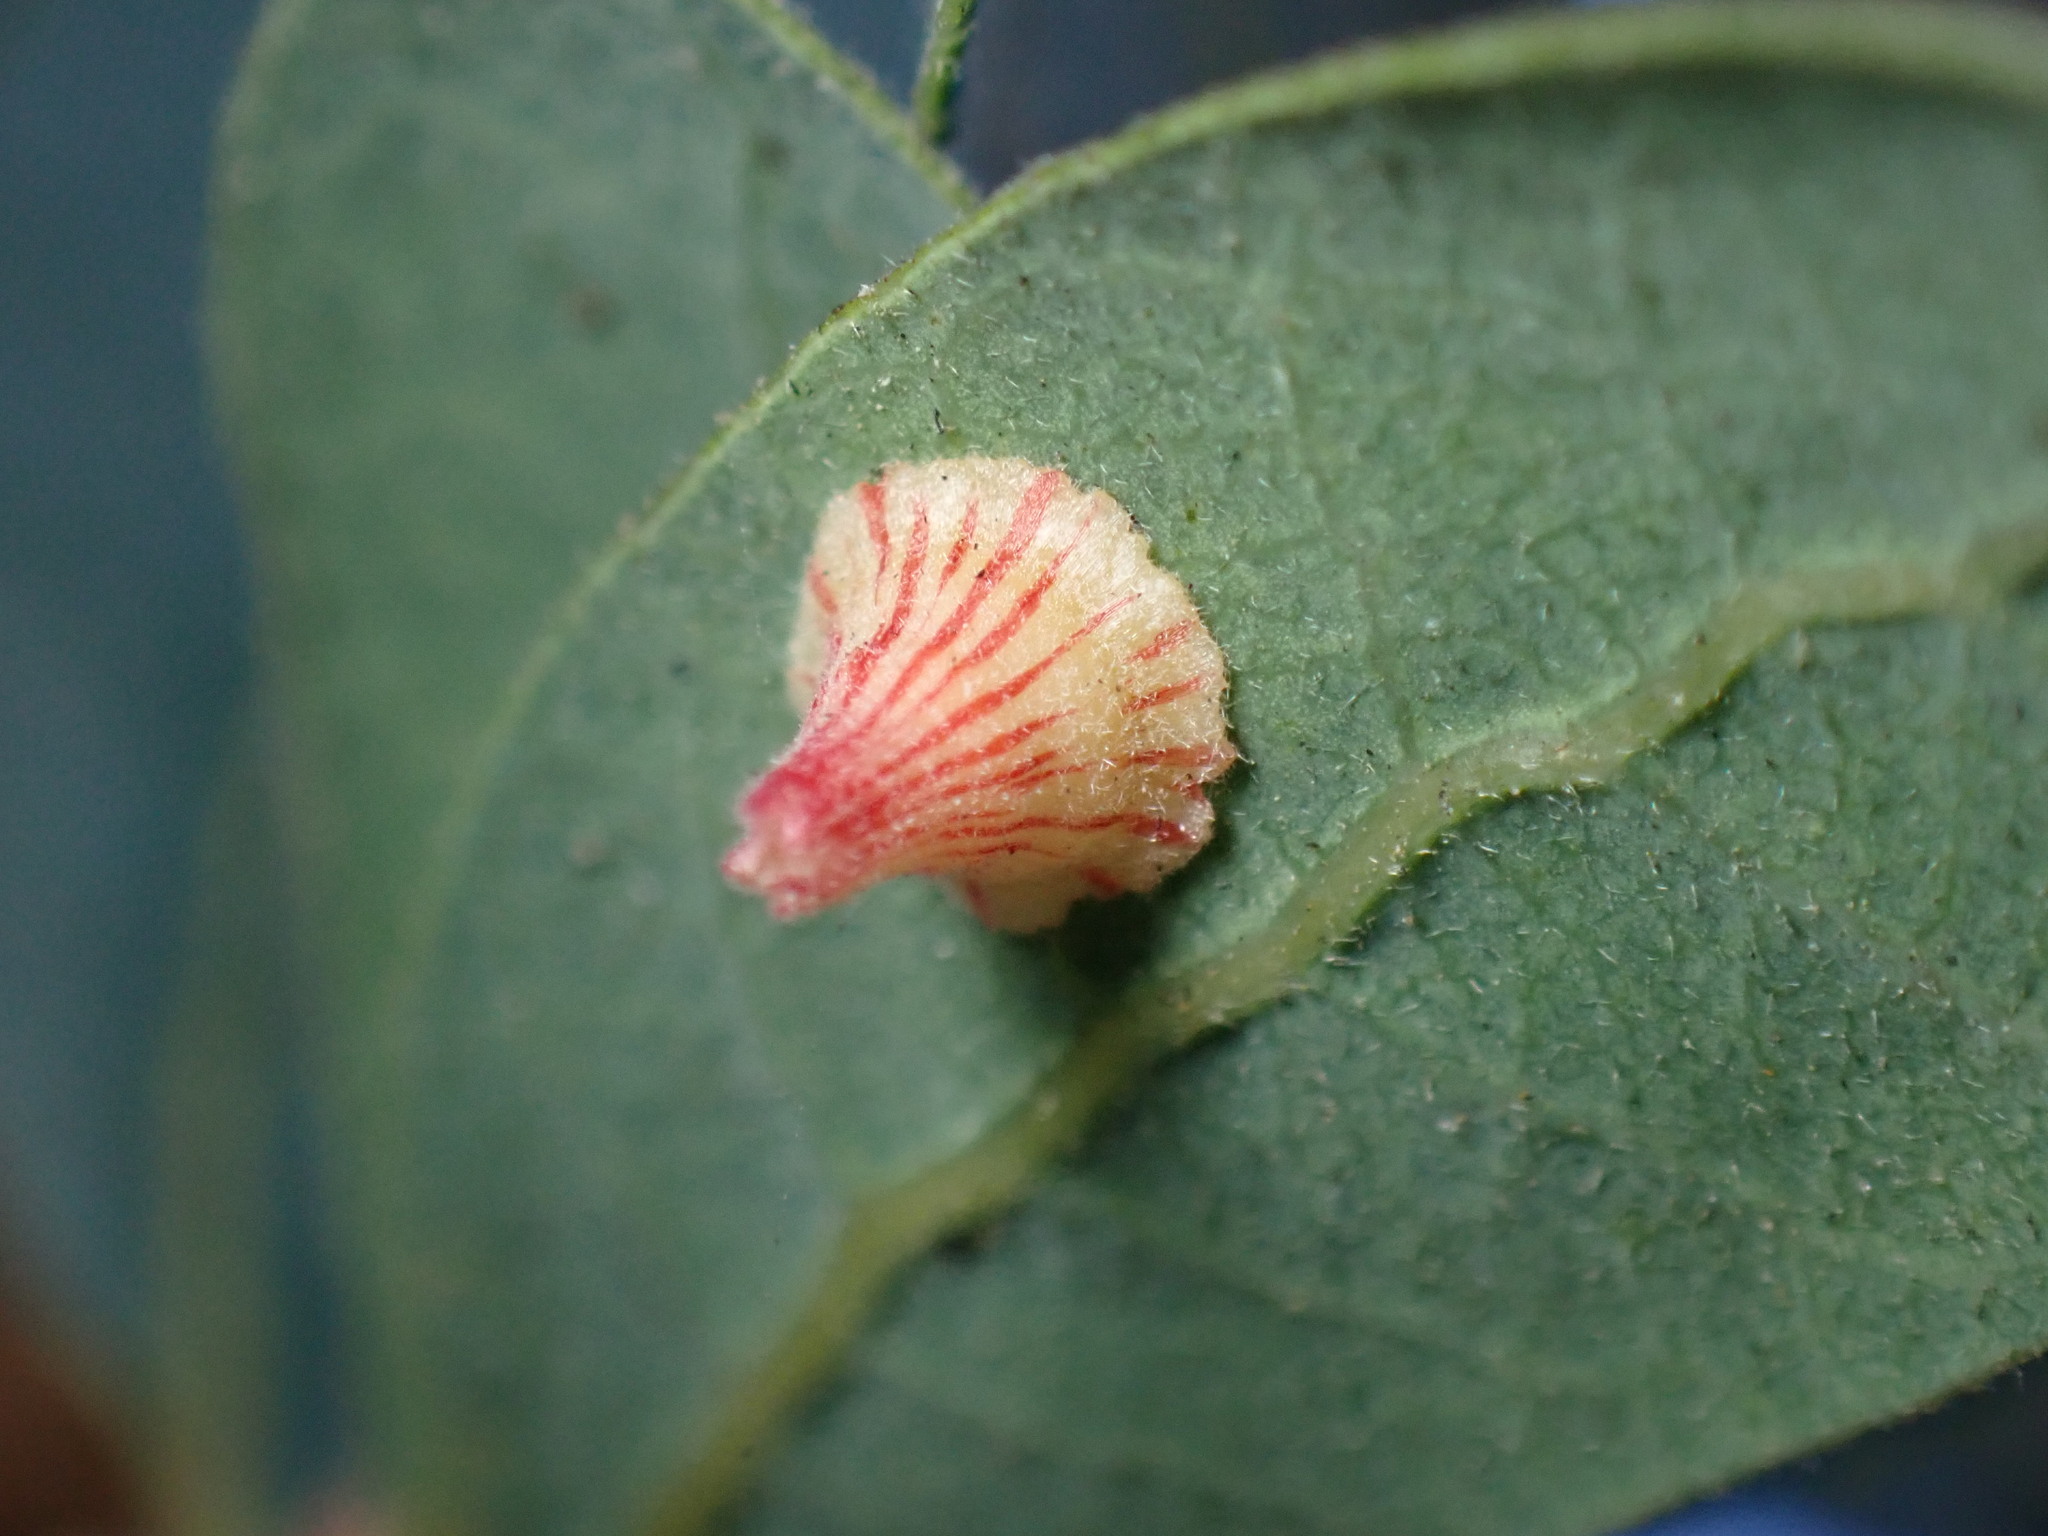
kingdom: Animalia
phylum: Arthropoda
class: Insecta
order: Hymenoptera
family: Cynipidae
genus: Andricus
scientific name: Andricus
